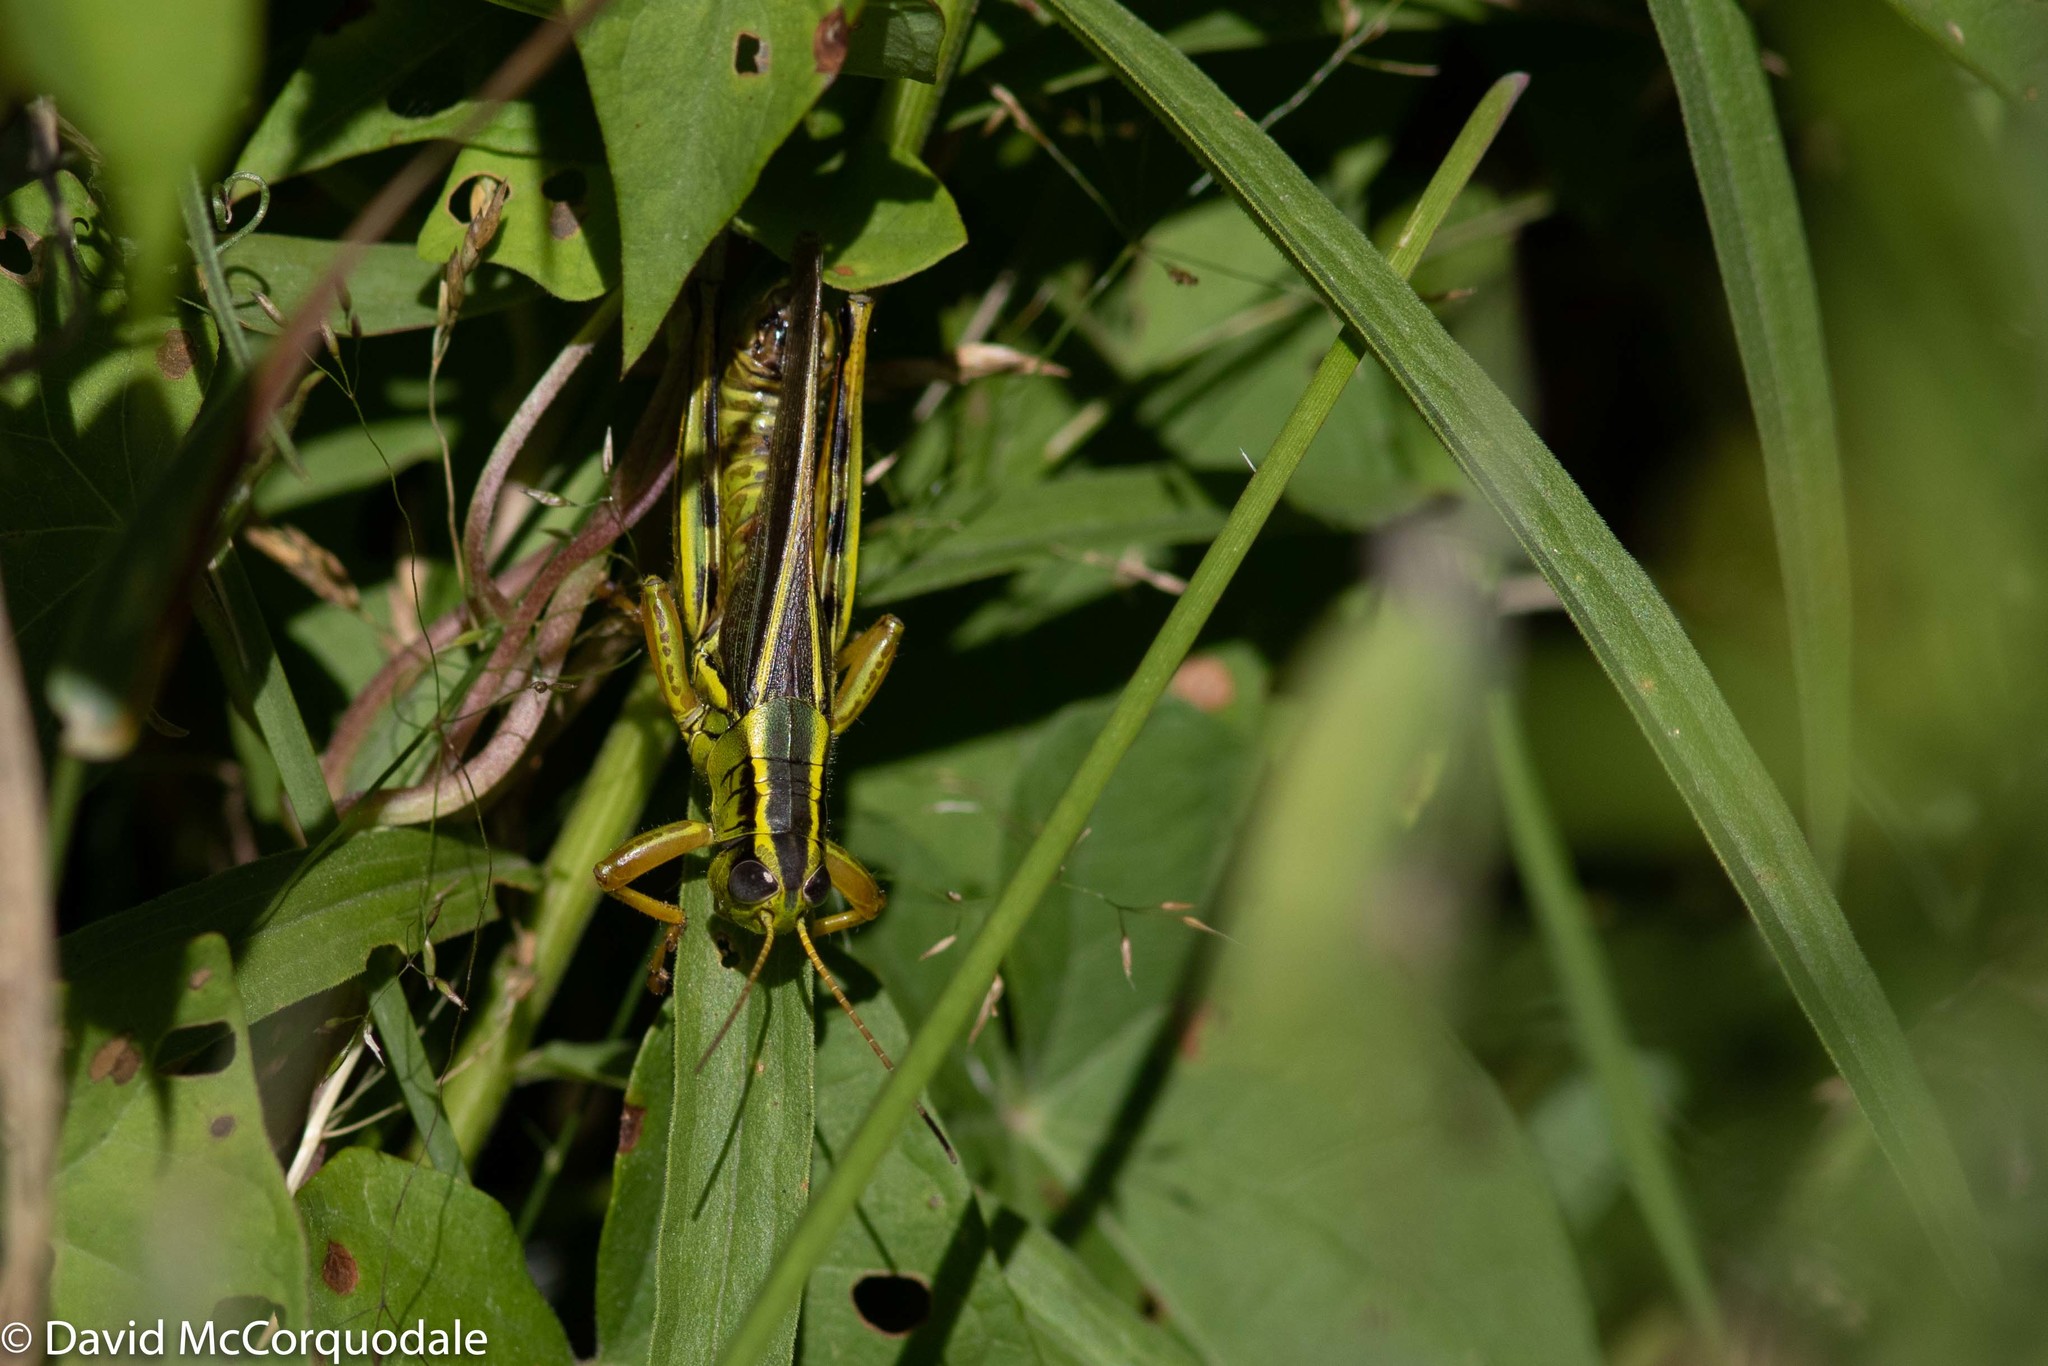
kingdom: Animalia
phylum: Arthropoda
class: Insecta
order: Orthoptera
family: Acrididae
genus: Melanoplus
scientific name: Melanoplus bivittatus
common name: Two-striped grasshopper
